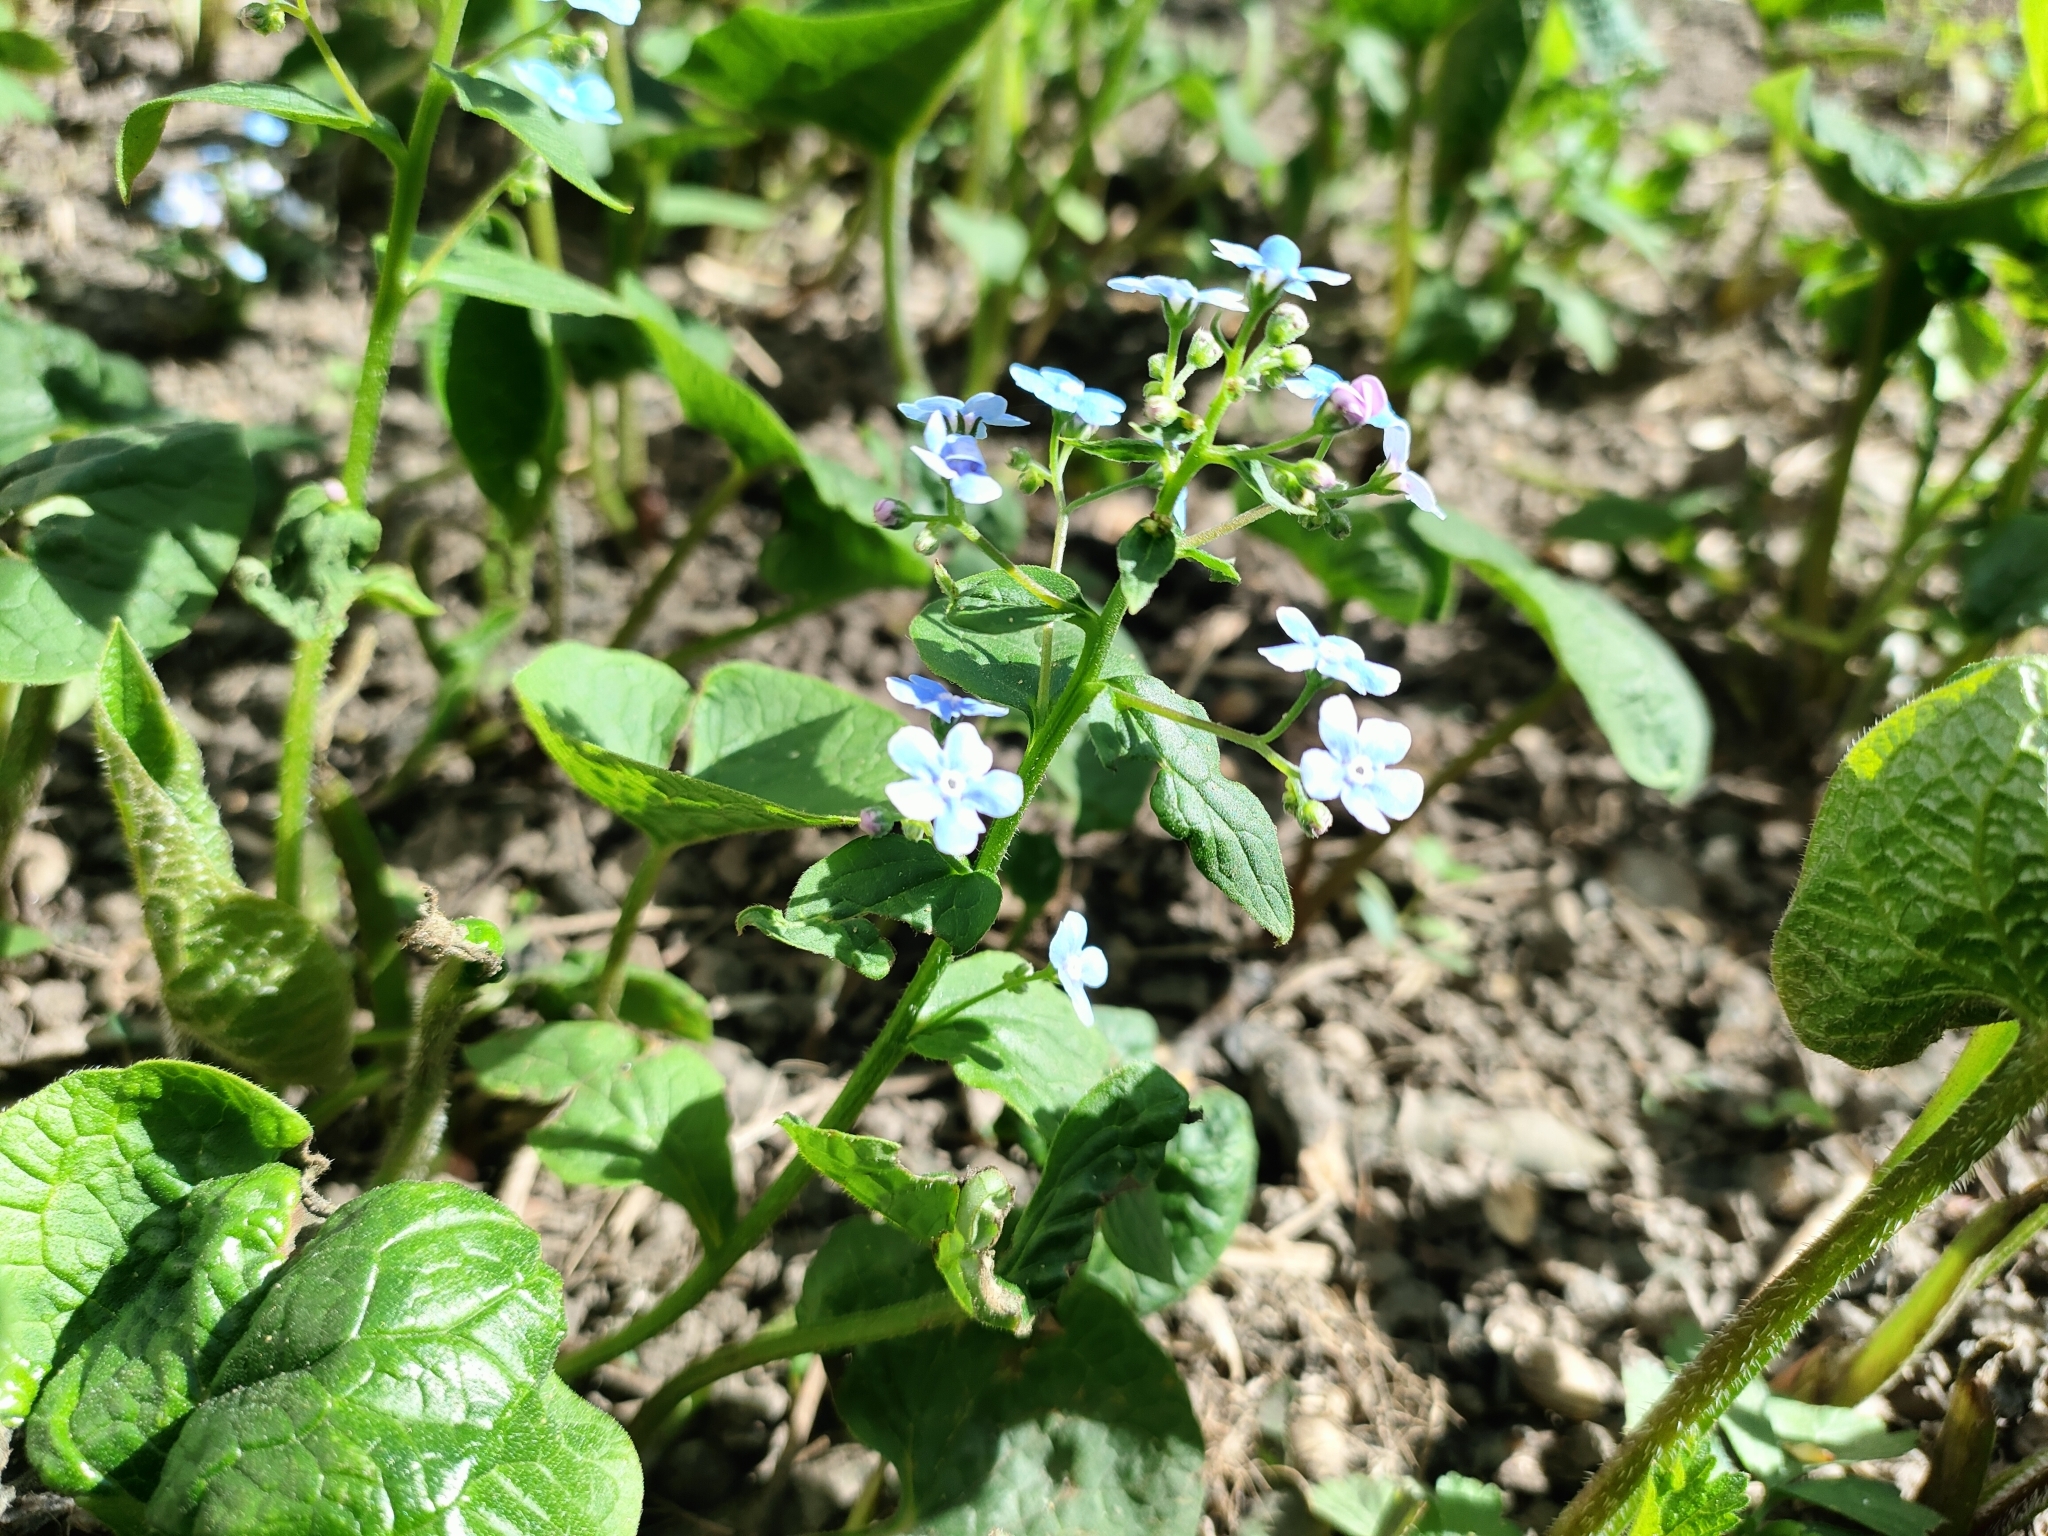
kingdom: Plantae
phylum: Tracheophyta
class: Magnoliopsida
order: Boraginales
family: Boraginaceae
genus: Brunnera
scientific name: Brunnera sibirica
